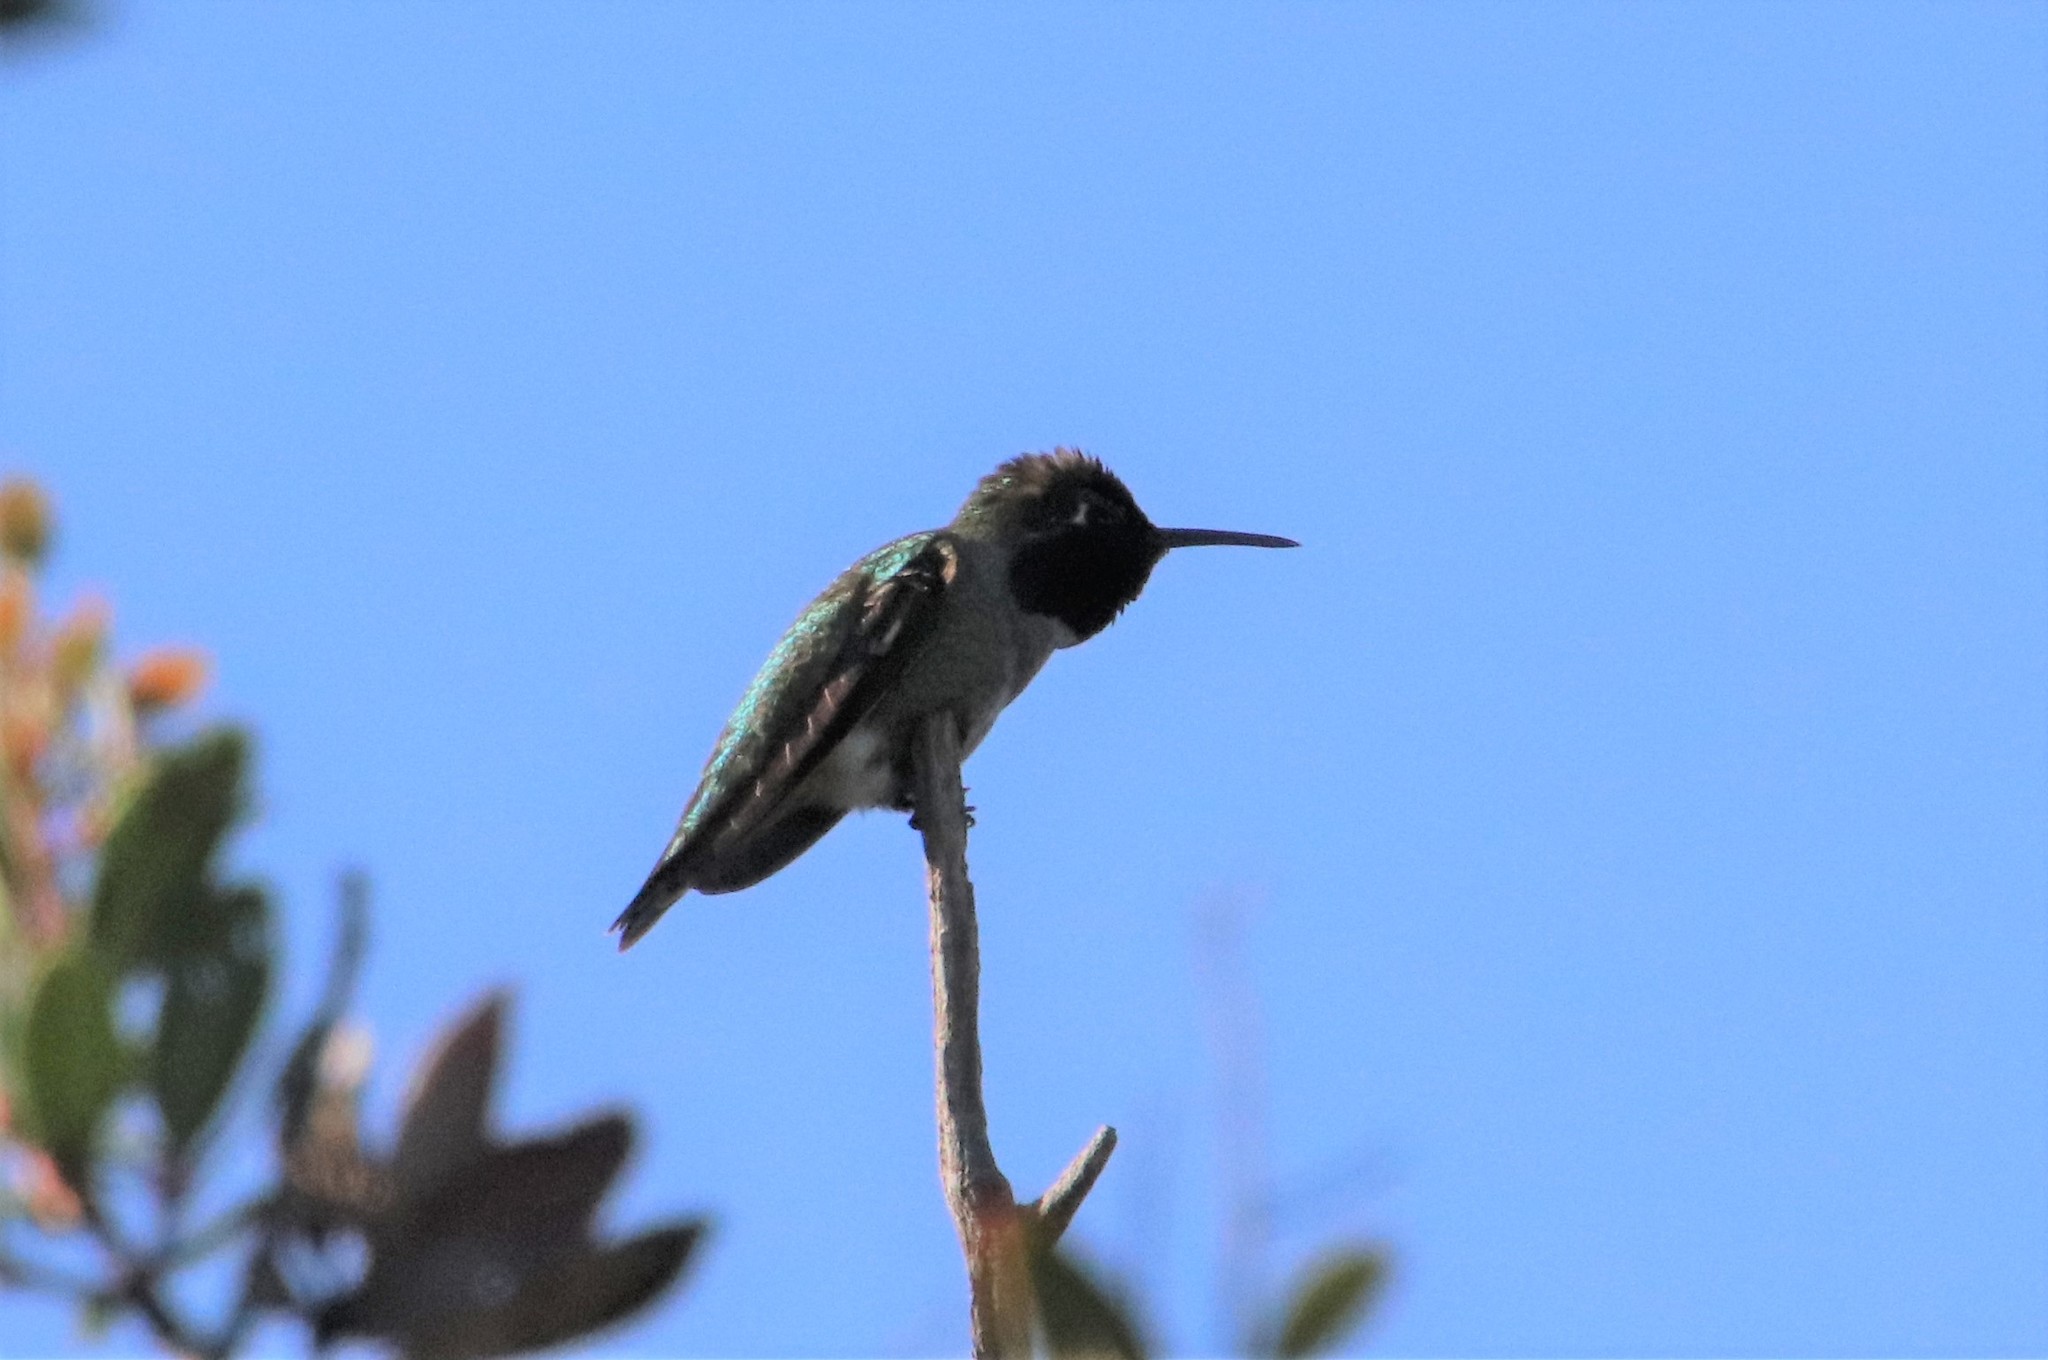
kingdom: Animalia
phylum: Chordata
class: Aves
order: Apodiformes
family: Trochilidae
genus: Calypte
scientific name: Calypte anna
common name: Anna's hummingbird
